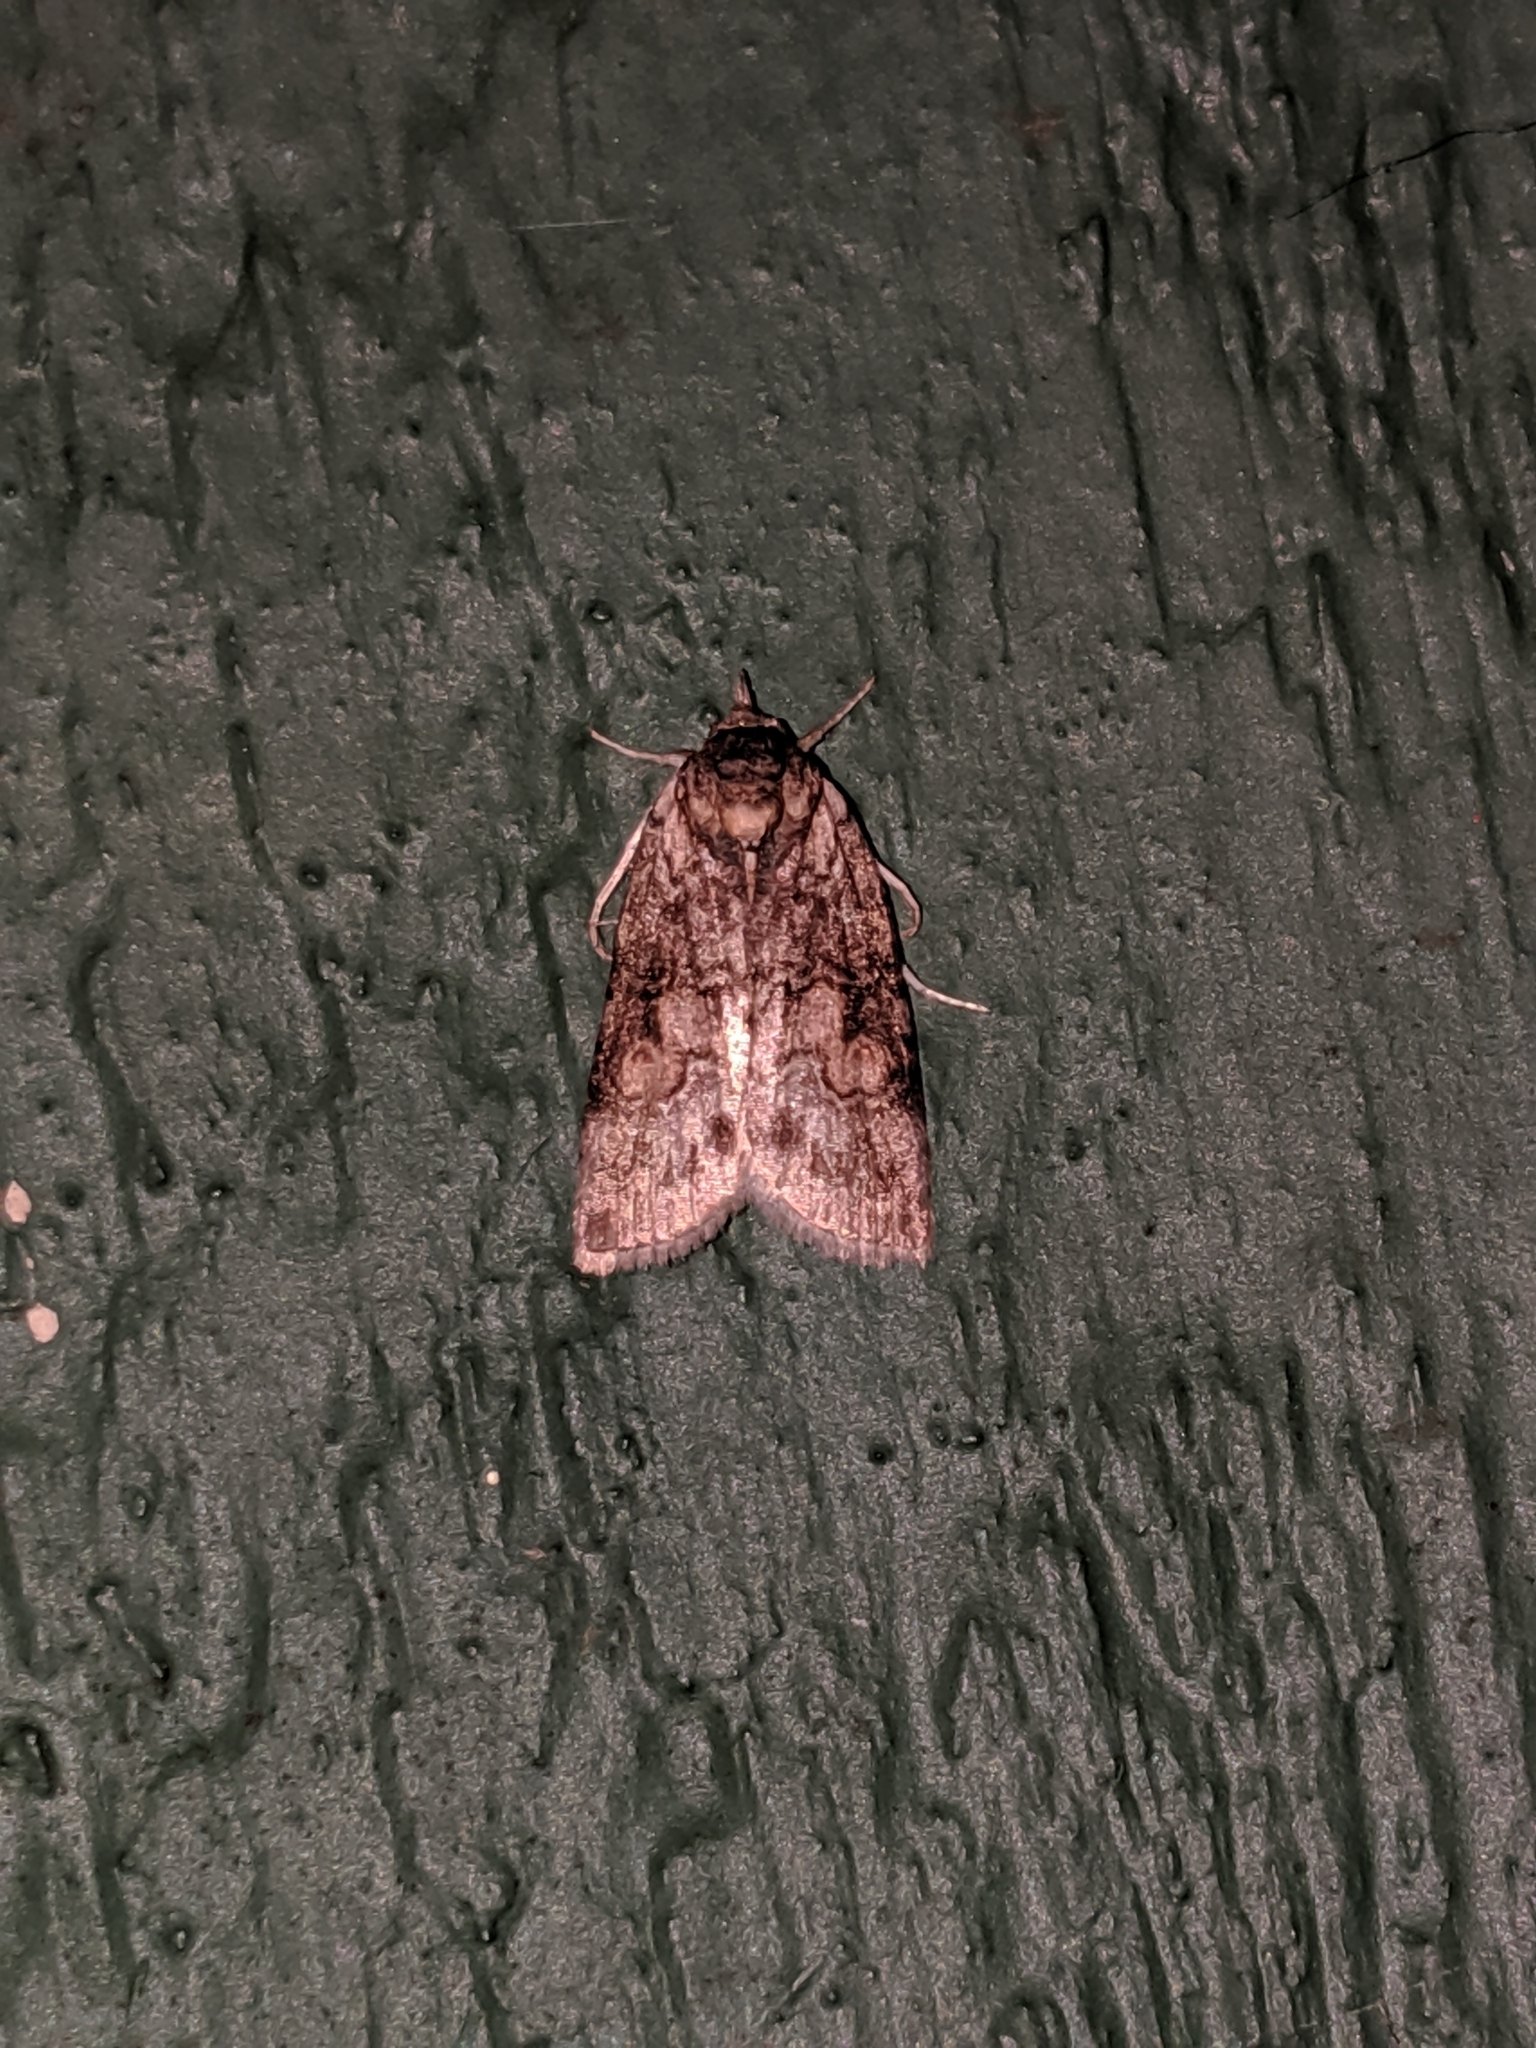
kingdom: Animalia
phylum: Arthropoda
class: Insecta
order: Lepidoptera
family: Nolidae
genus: Nycteola
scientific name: Nycteola cinereana
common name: Grey midget moth
